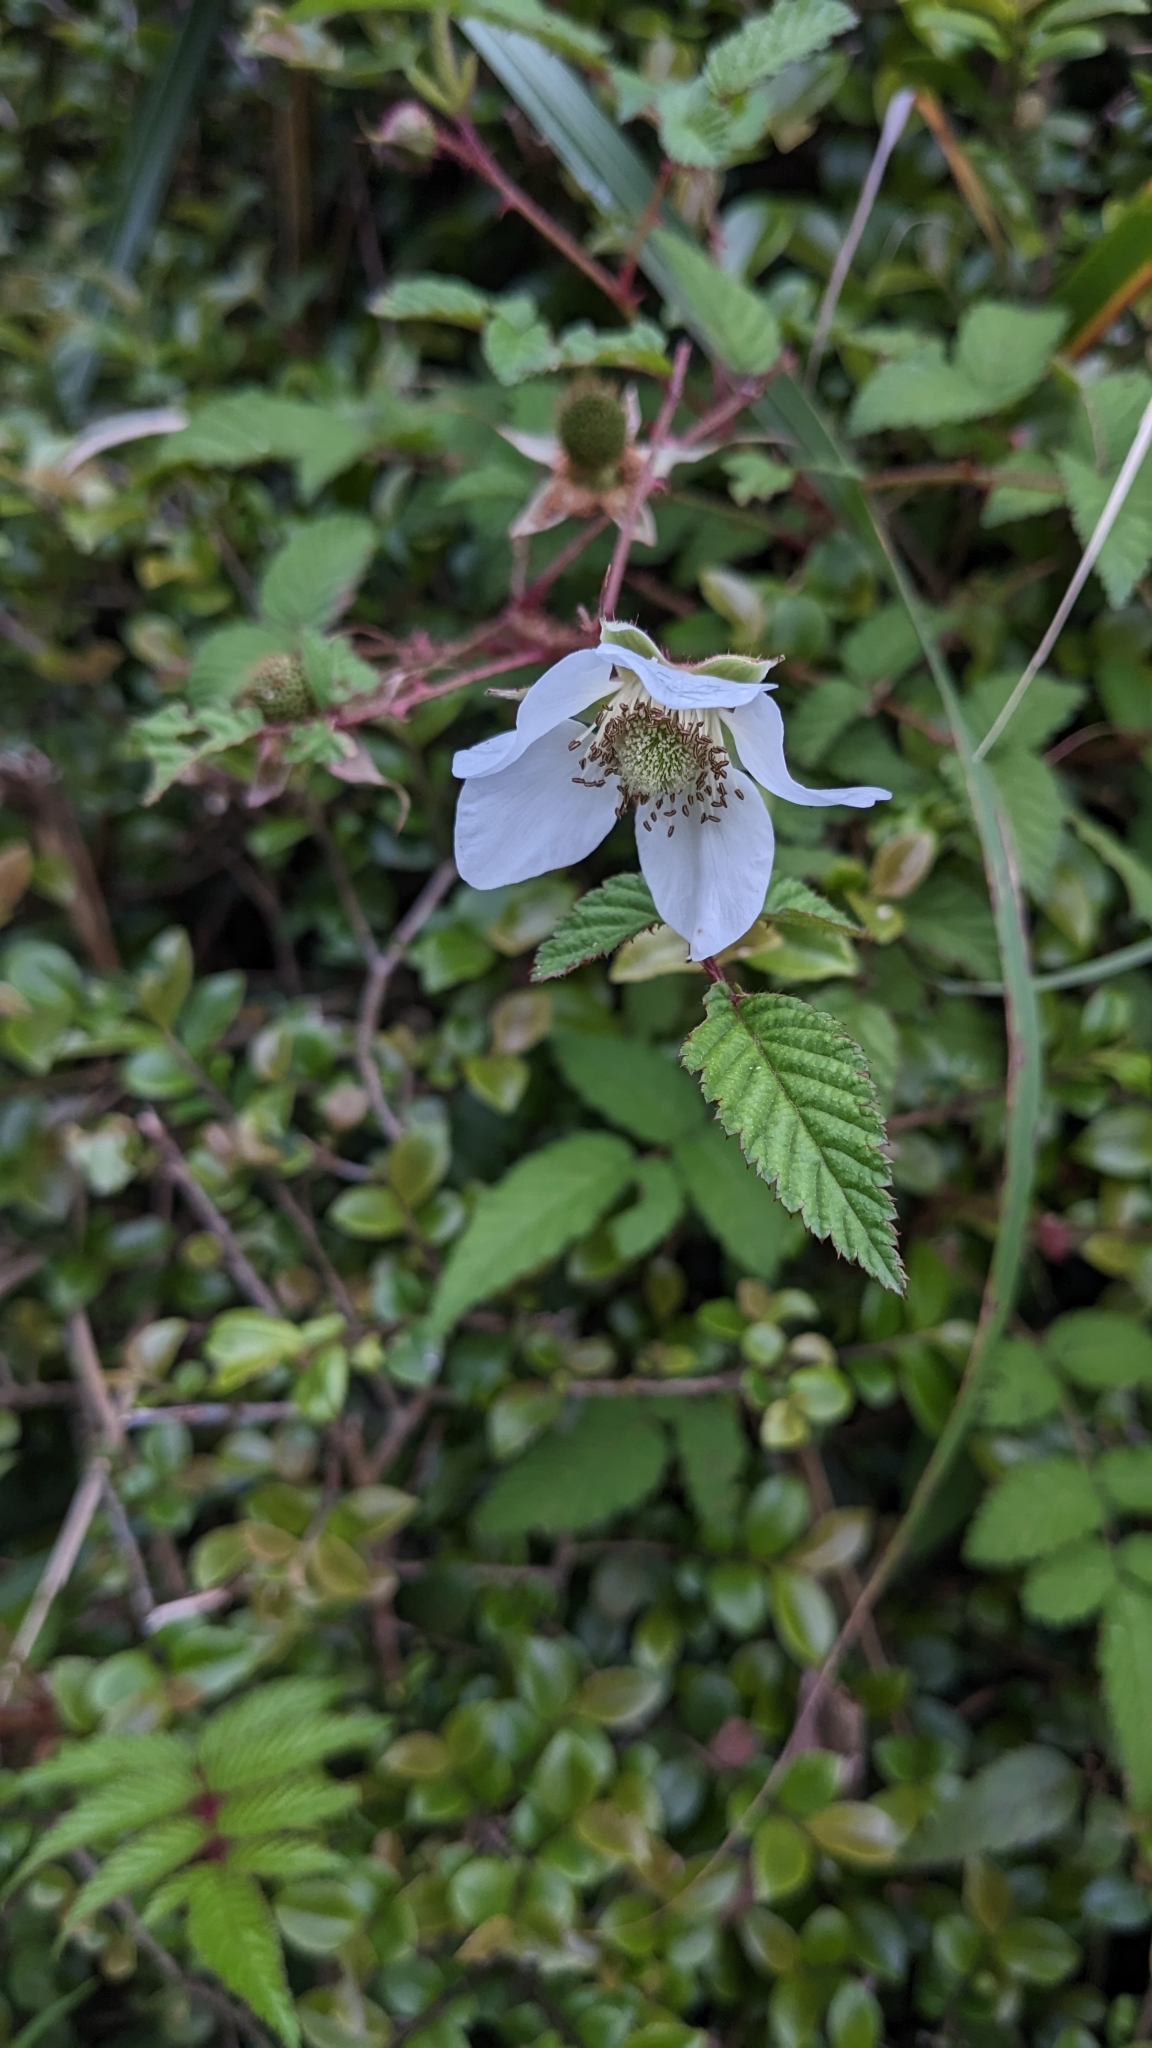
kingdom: Plantae
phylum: Tracheophyta
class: Magnoliopsida
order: Rosales
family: Rosaceae
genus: Rubus
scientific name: Rubus croceacanthus
